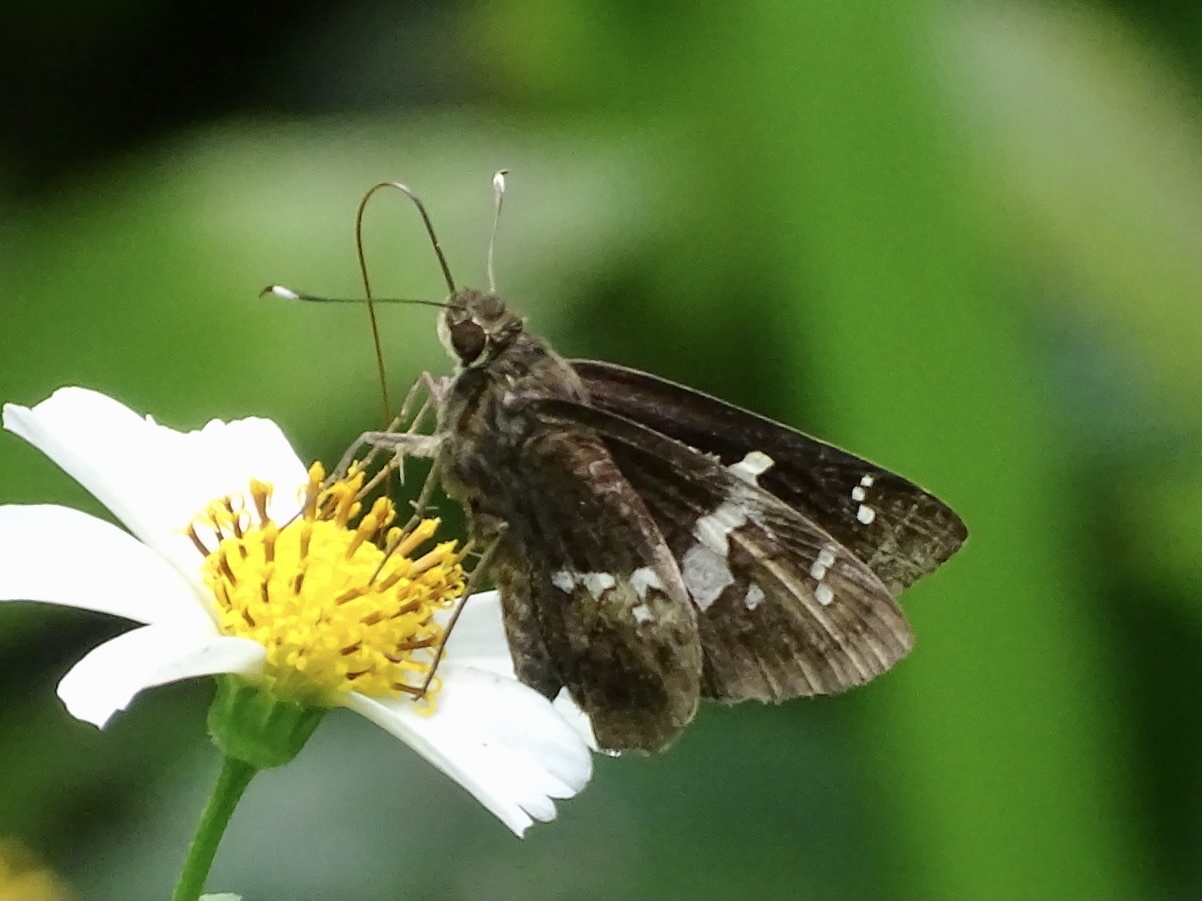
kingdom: Animalia
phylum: Arthropoda
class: Insecta
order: Lepidoptera
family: Hesperiidae
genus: Hyarotis
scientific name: Hyarotis adrastus
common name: Tree flitter
